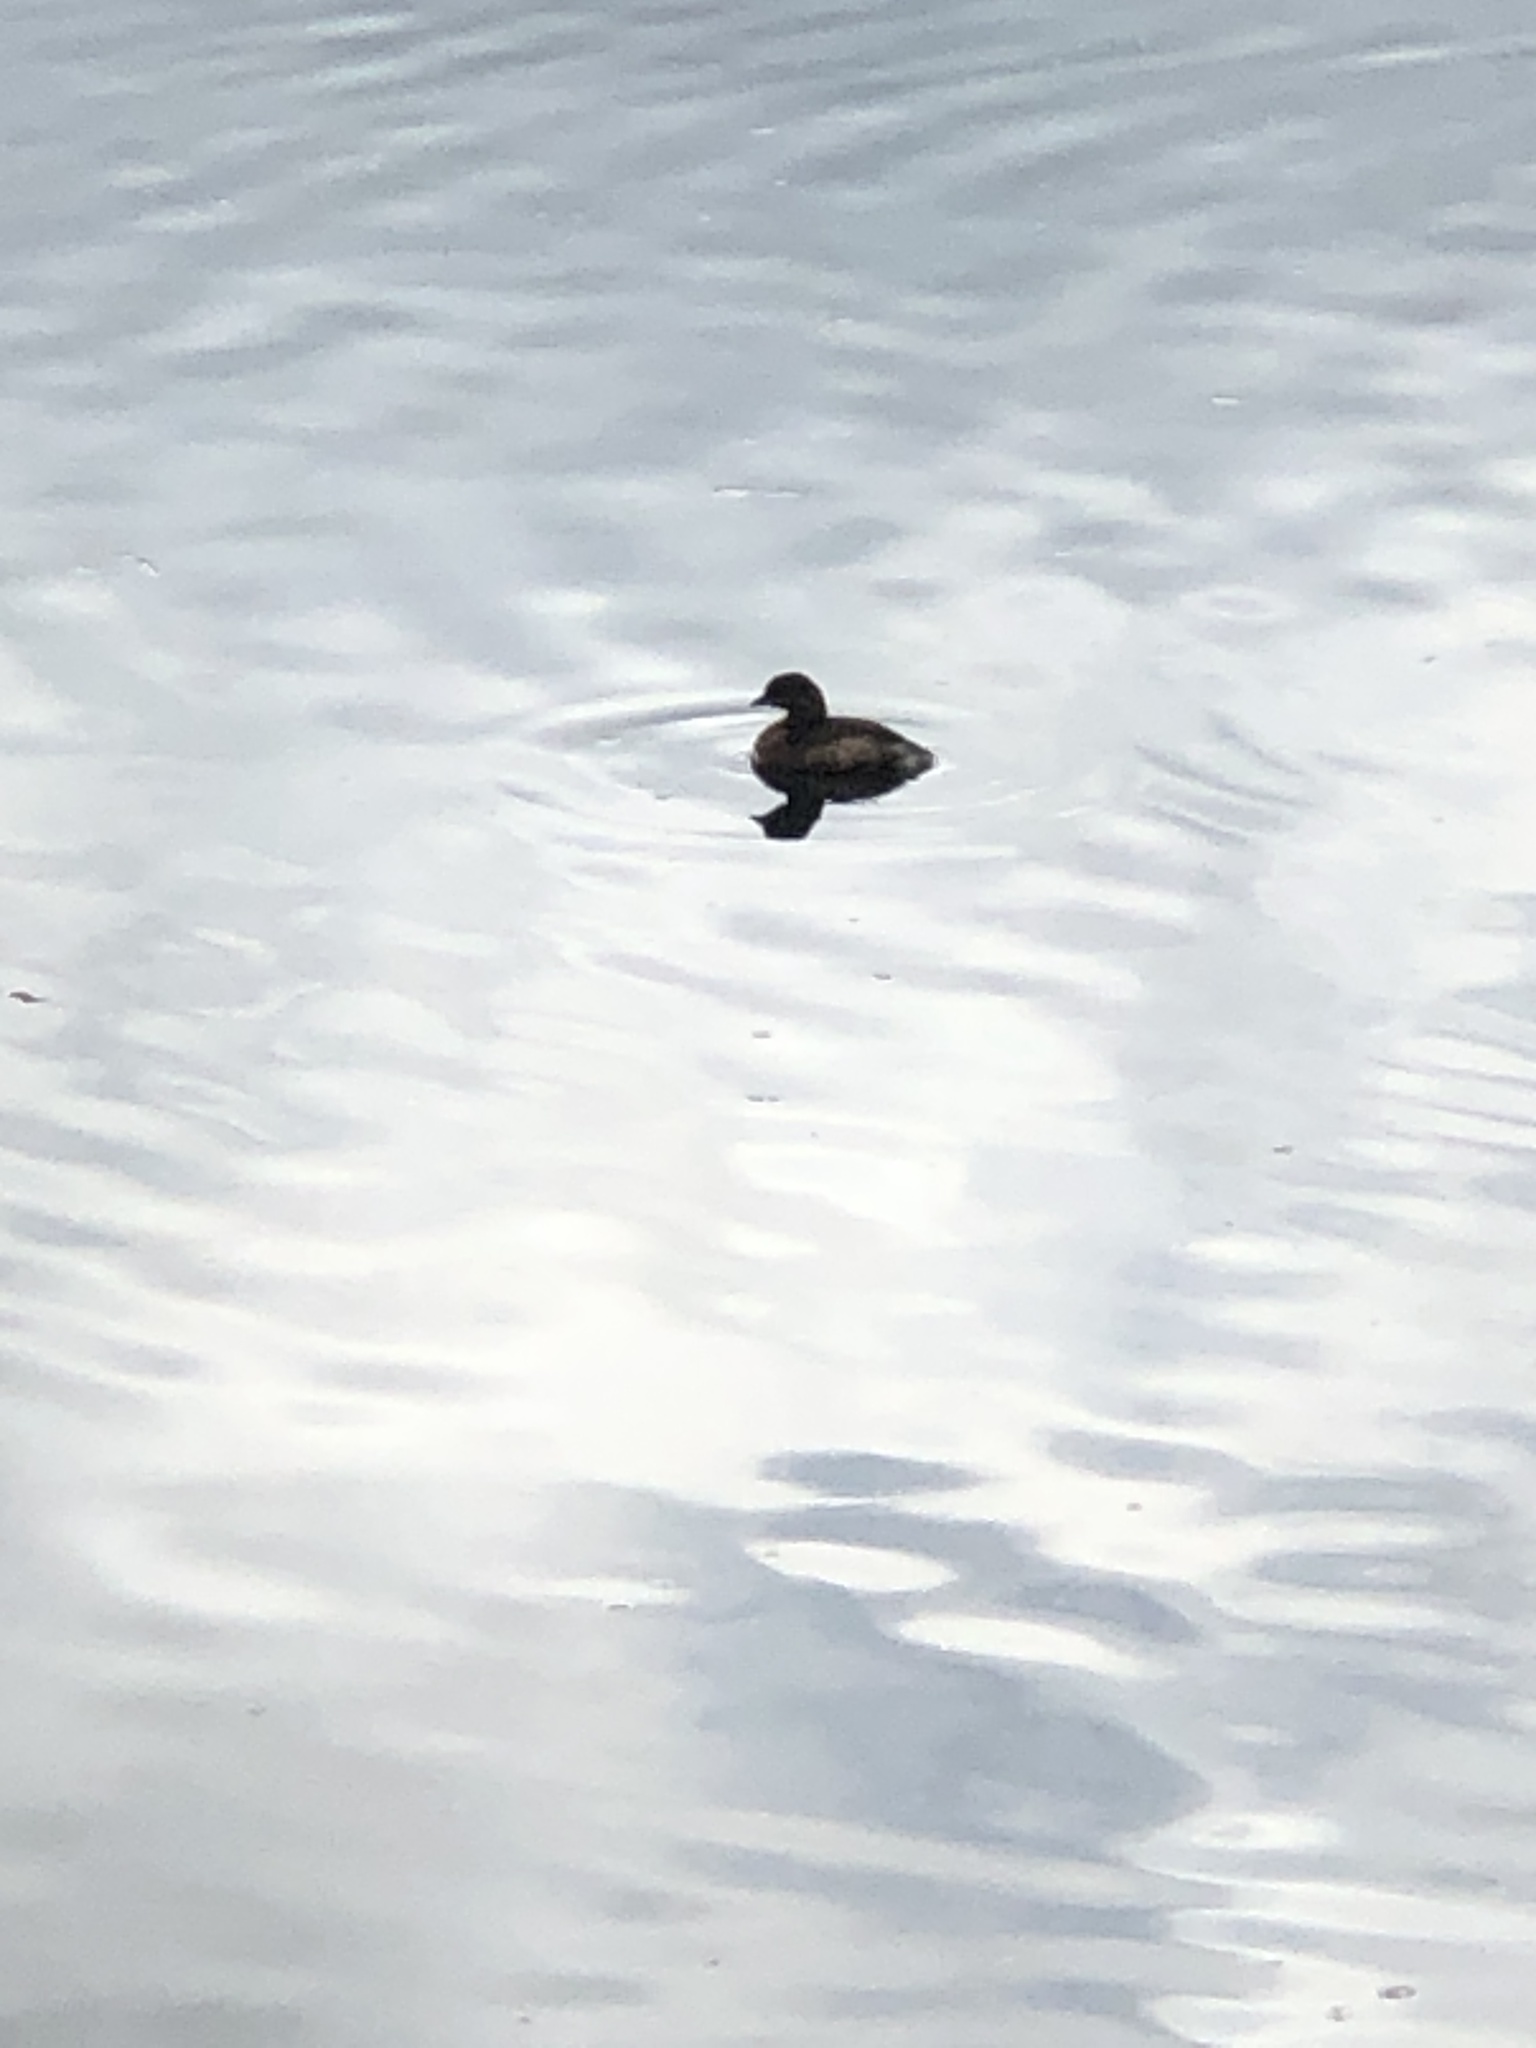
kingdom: Animalia
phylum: Chordata
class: Aves
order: Podicipediformes
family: Podicipedidae
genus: Podilymbus
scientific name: Podilymbus podiceps
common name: Pied-billed grebe
